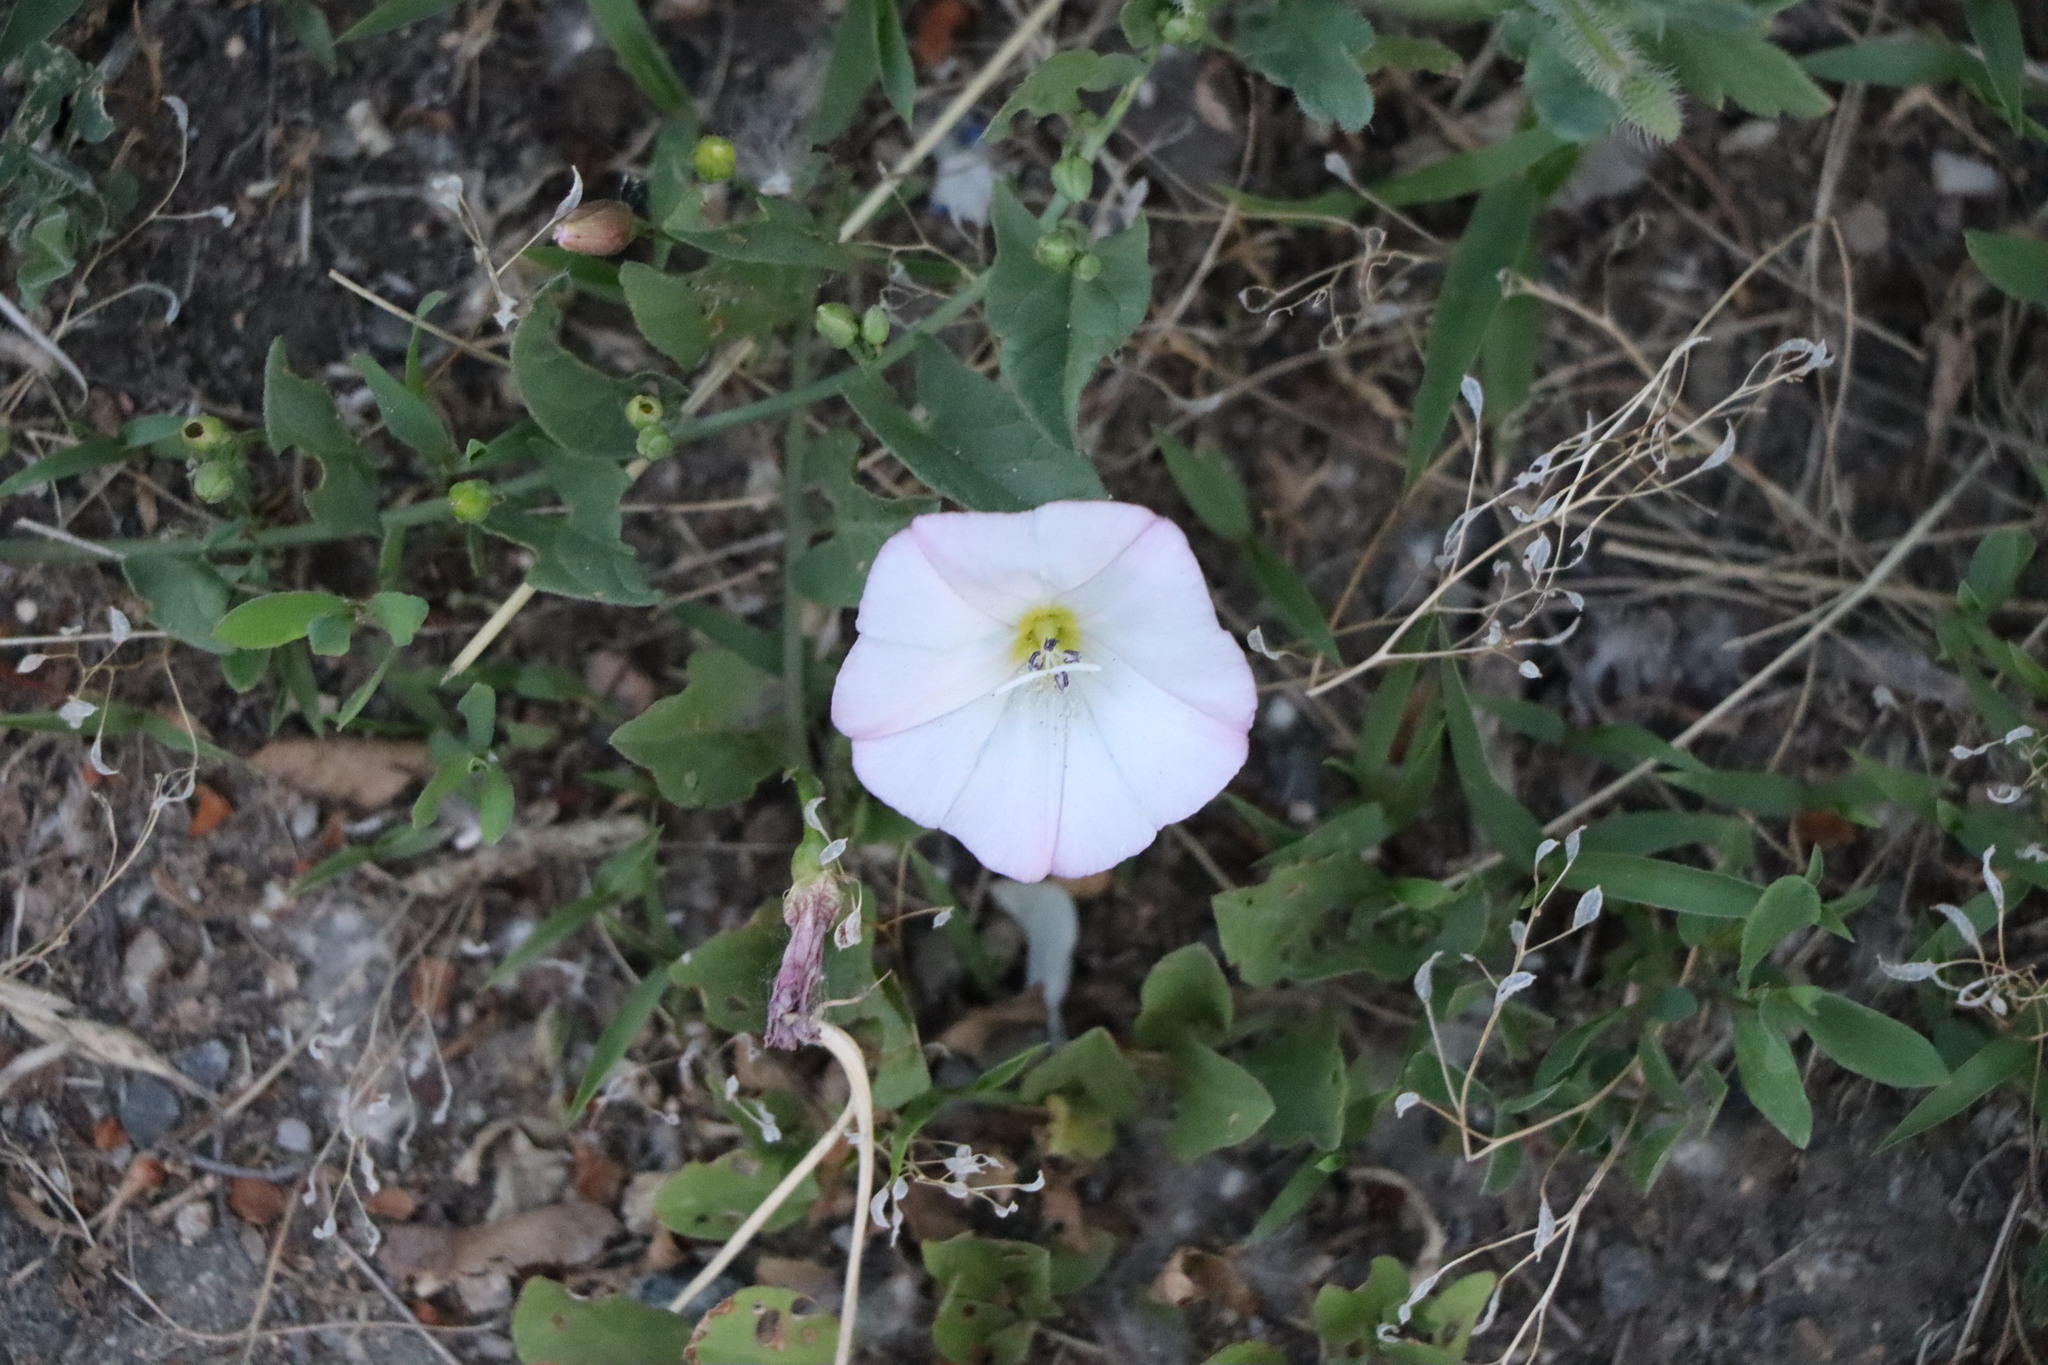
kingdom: Plantae
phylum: Tracheophyta
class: Magnoliopsida
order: Solanales
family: Convolvulaceae
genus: Convolvulus
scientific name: Convolvulus arvensis
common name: Field bindweed
